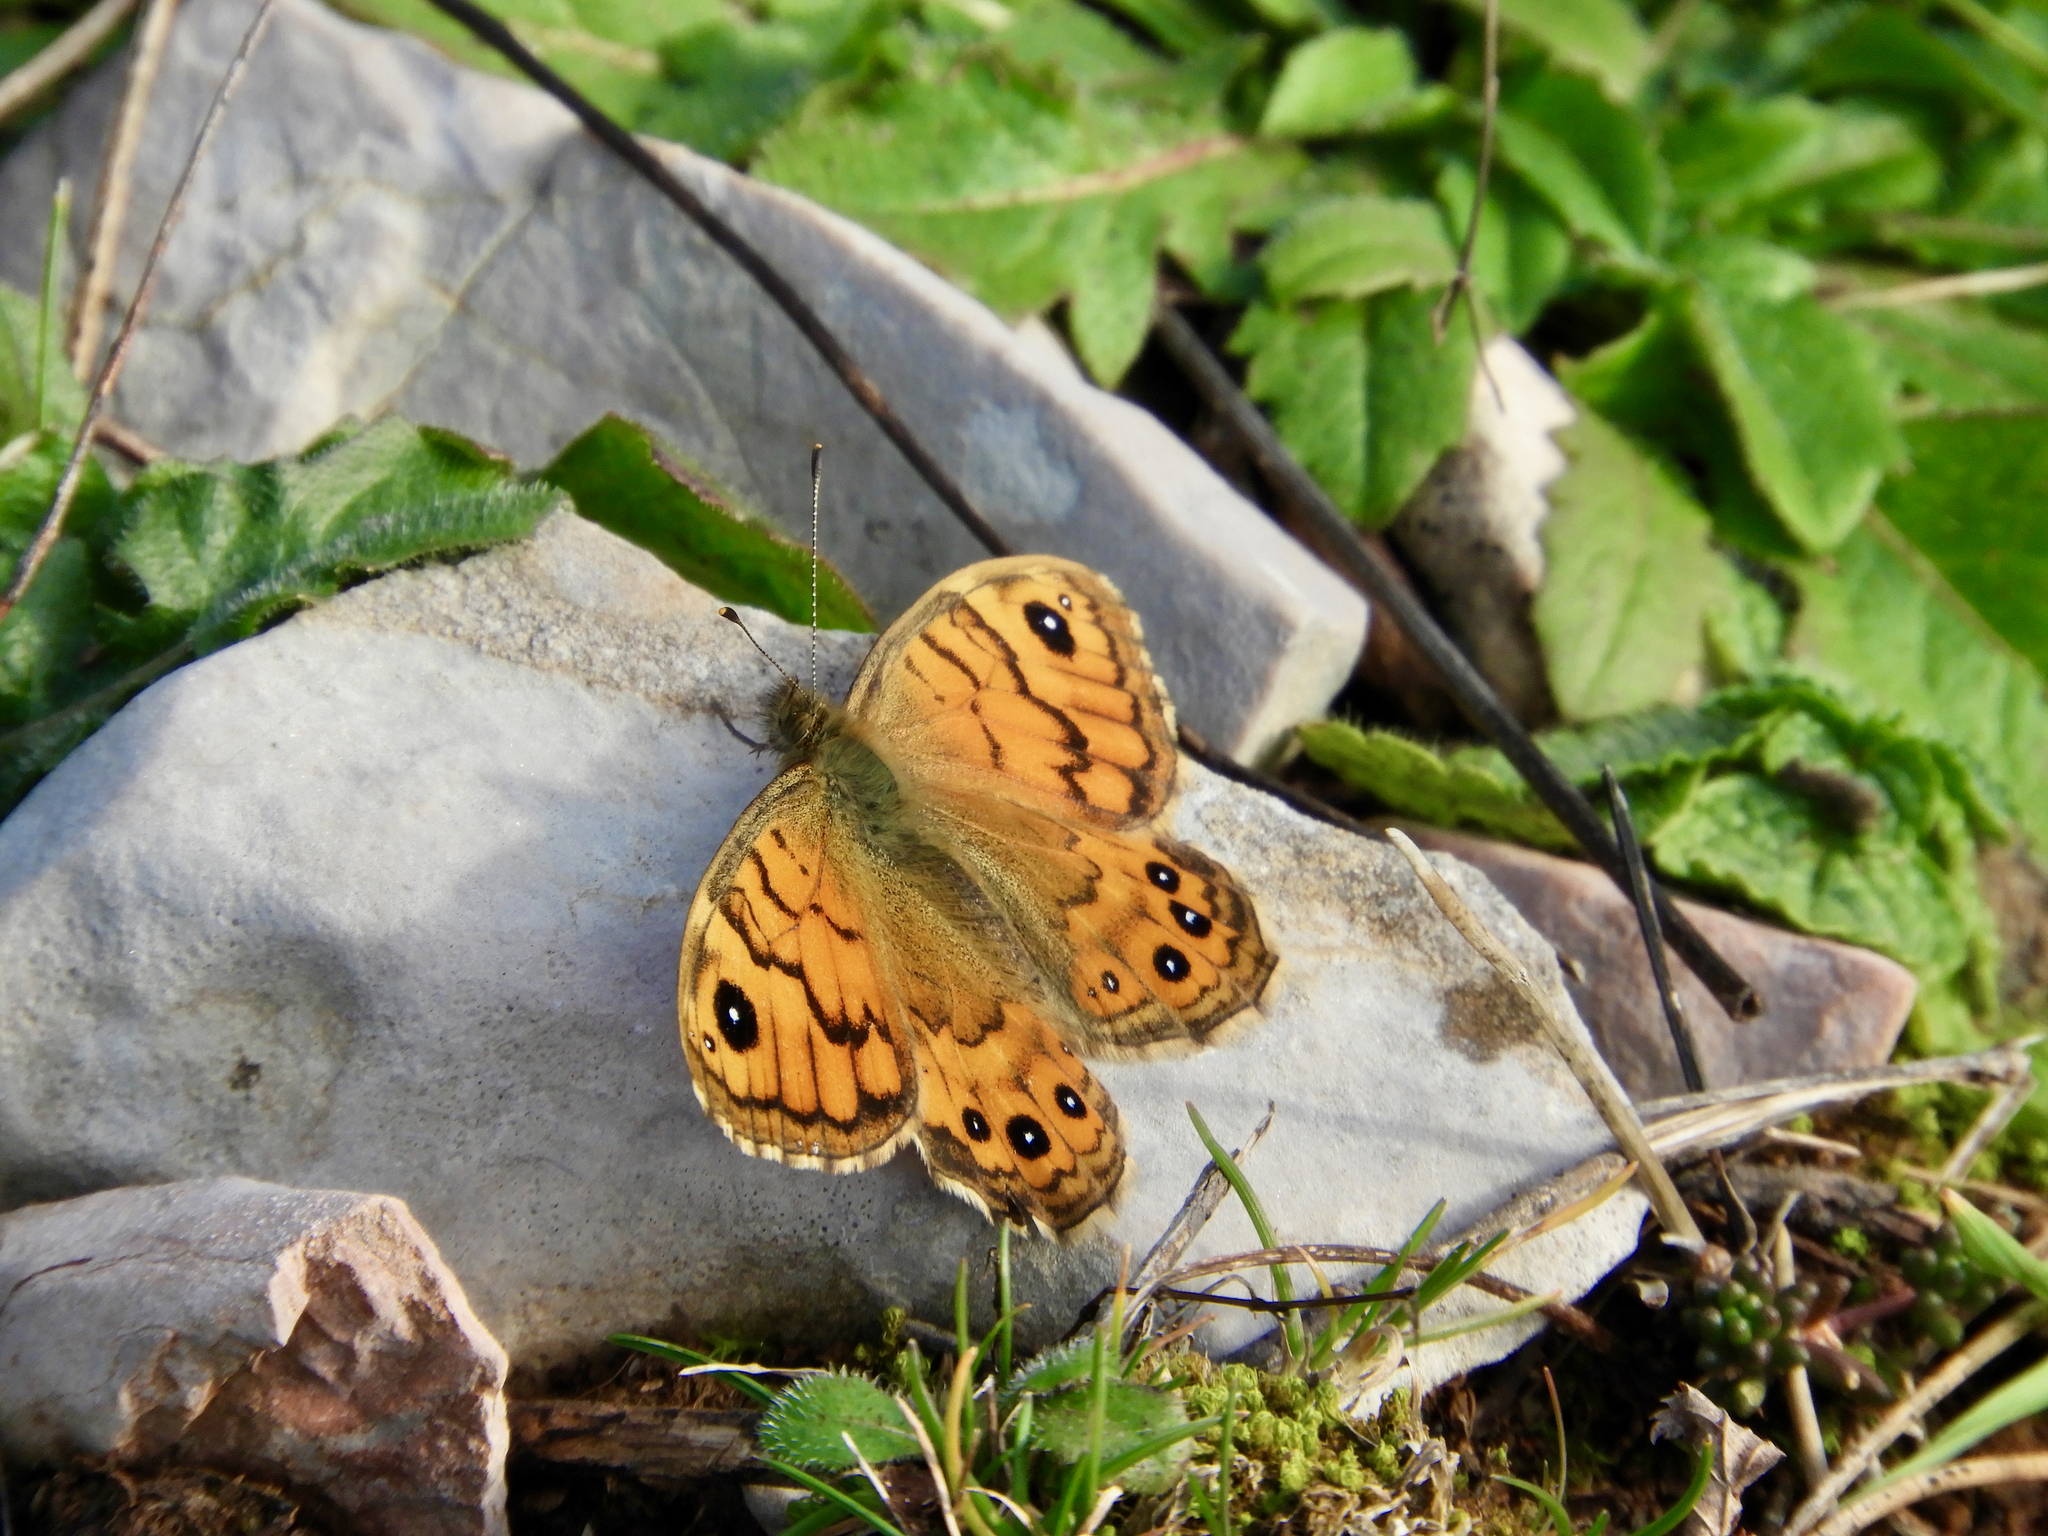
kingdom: Animalia
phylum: Arthropoda
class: Insecta
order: Lepidoptera
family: Nymphalidae
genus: Pararge
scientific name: Pararge Lasiommata megera
